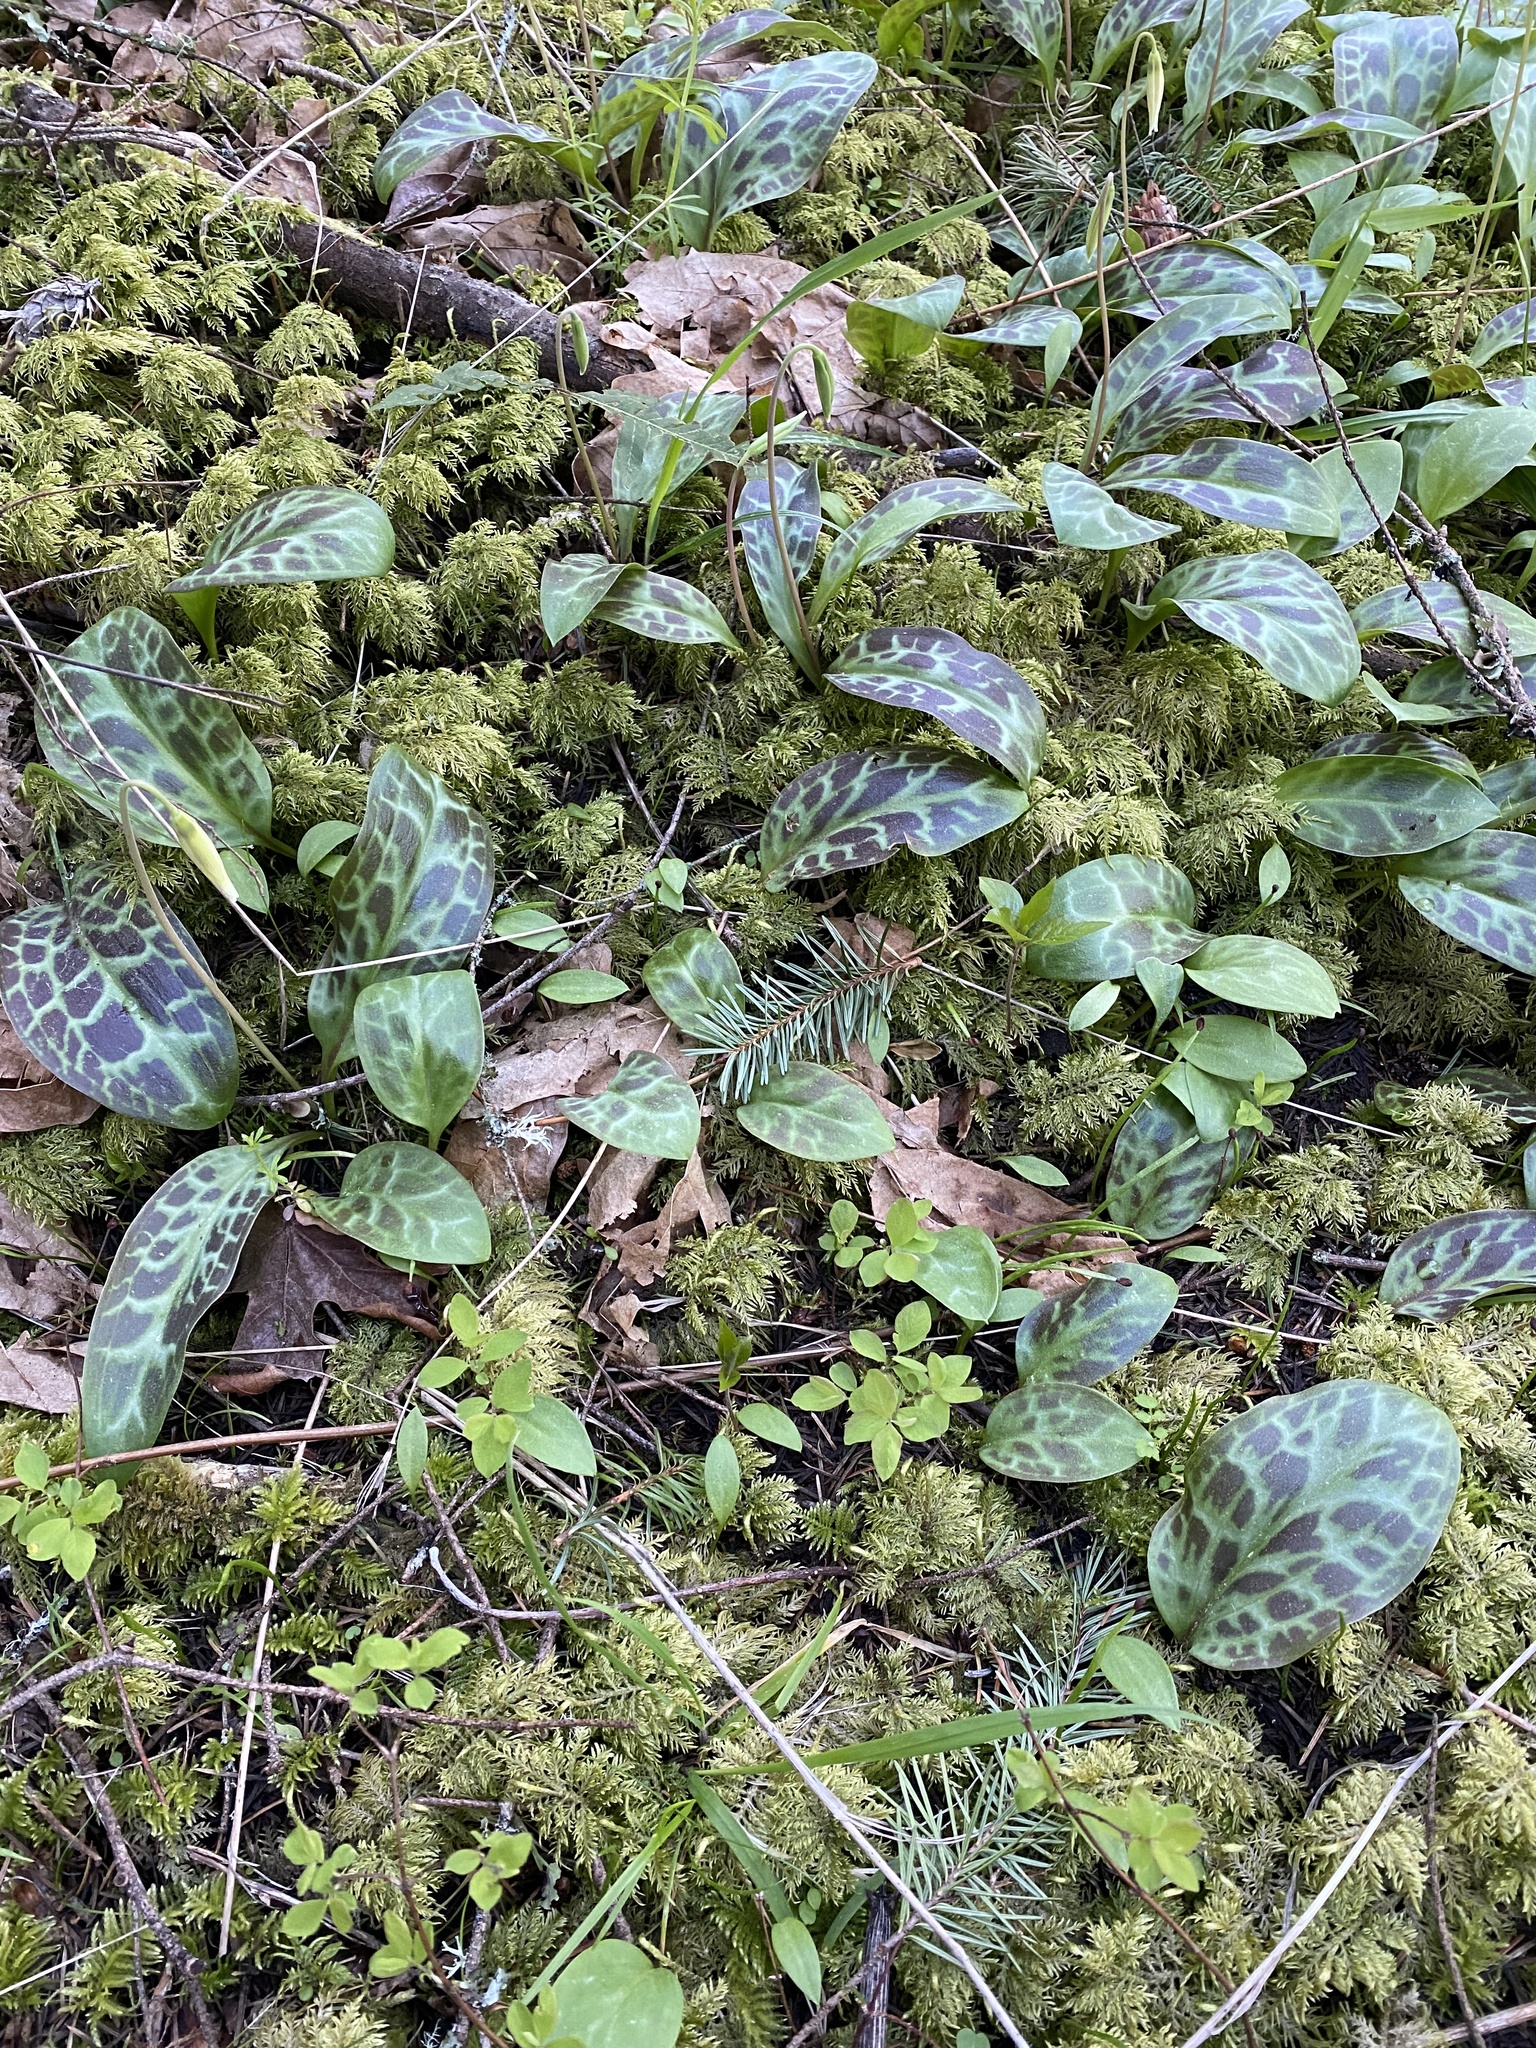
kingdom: Plantae
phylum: Tracheophyta
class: Liliopsida
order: Liliales
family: Liliaceae
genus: Erythronium
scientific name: Erythronium oregonum
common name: Giant adder's-tongue
